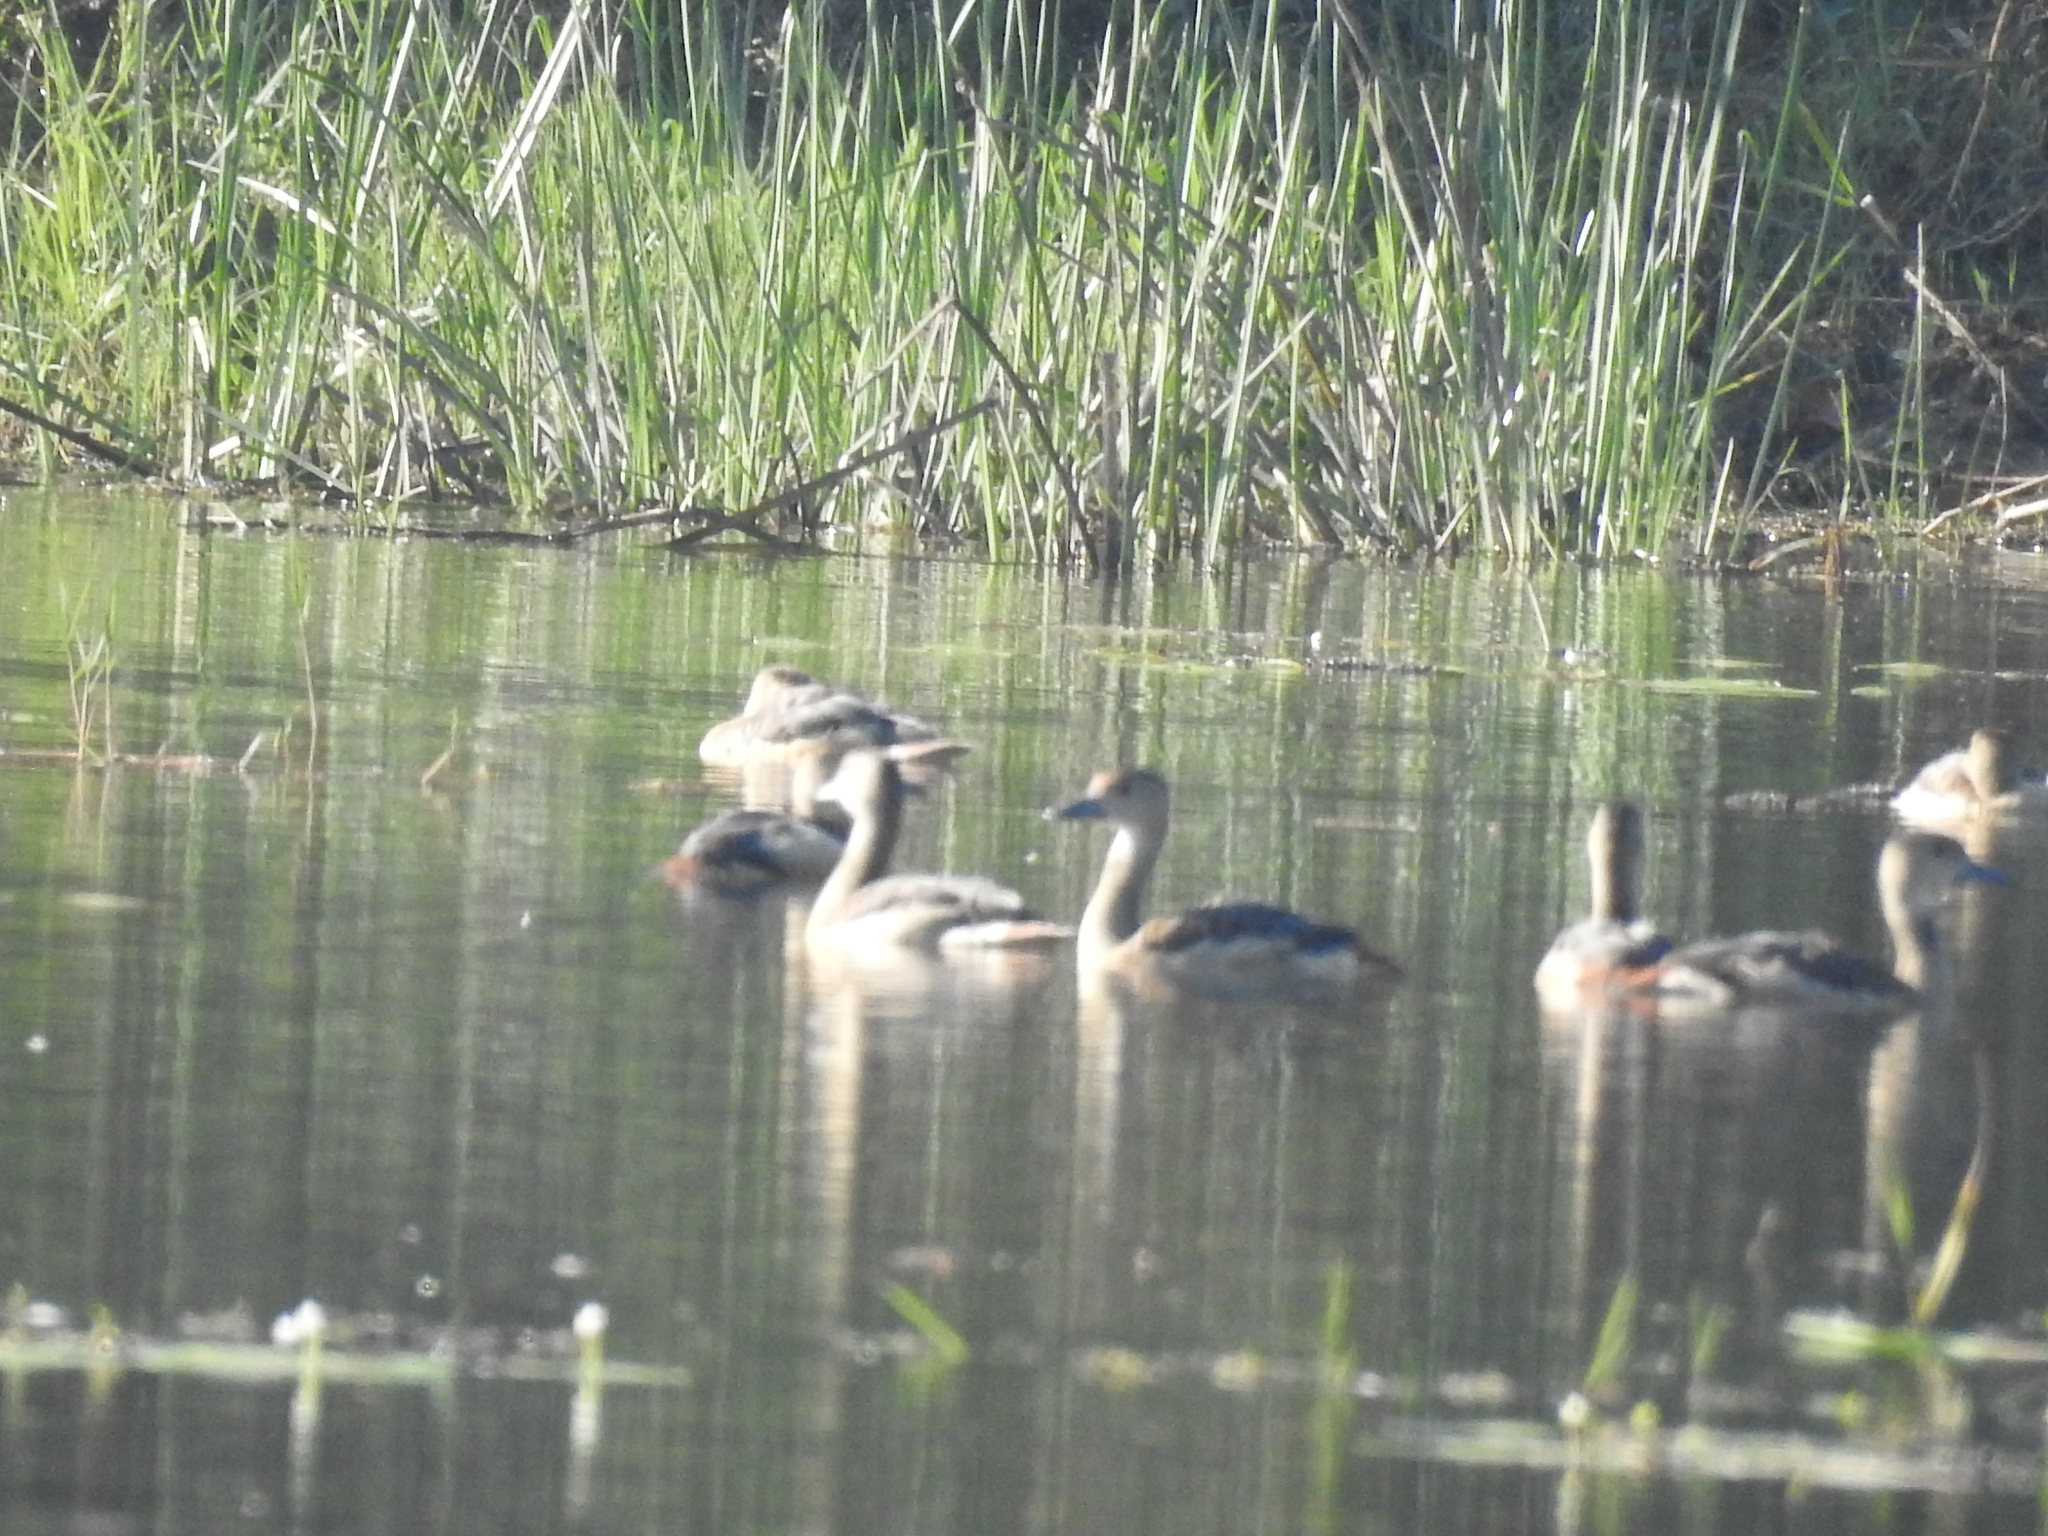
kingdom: Animalia
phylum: Chordata
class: Aves
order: Anseriformes
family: Anatidae
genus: Dendrocygna
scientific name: Dendrocygna javanica
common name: Lesser whistling-duck
